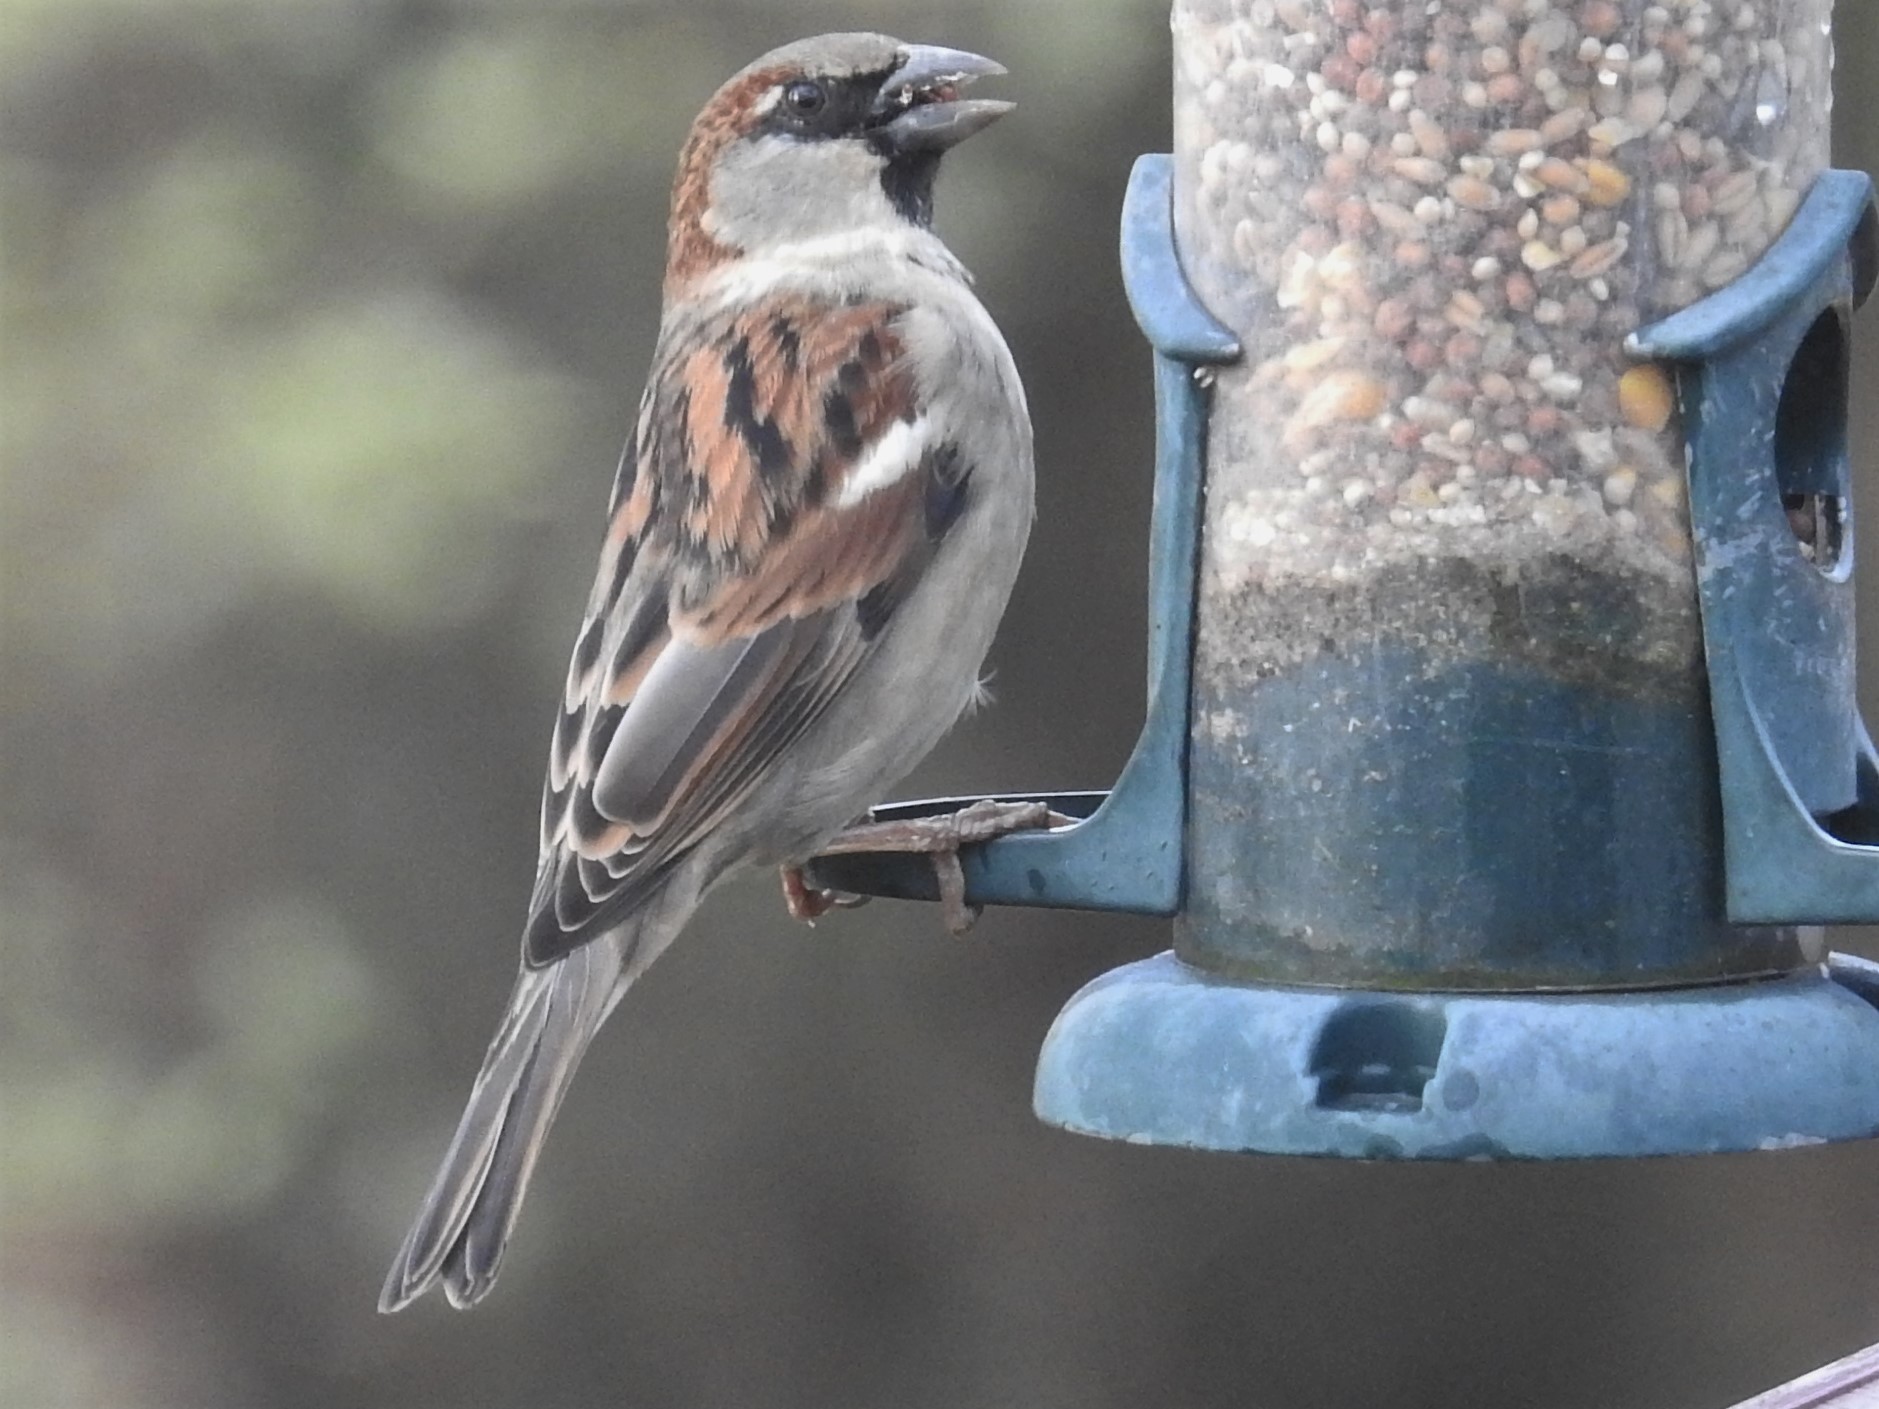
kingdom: Animalia
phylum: Chordata
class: Aves
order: Passeriformes
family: Passeridae
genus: Passer
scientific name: Passer domesticus
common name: House sparrow
